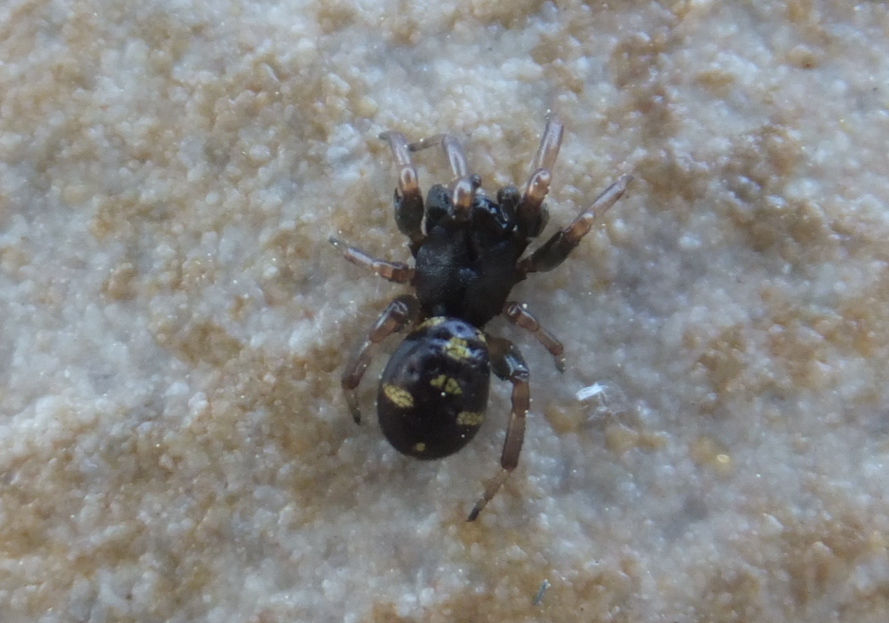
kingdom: Animalia
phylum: Arthropoda
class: Arachnida
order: Araneae
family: Theridiidae
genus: Asagena
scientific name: Asagena italica
